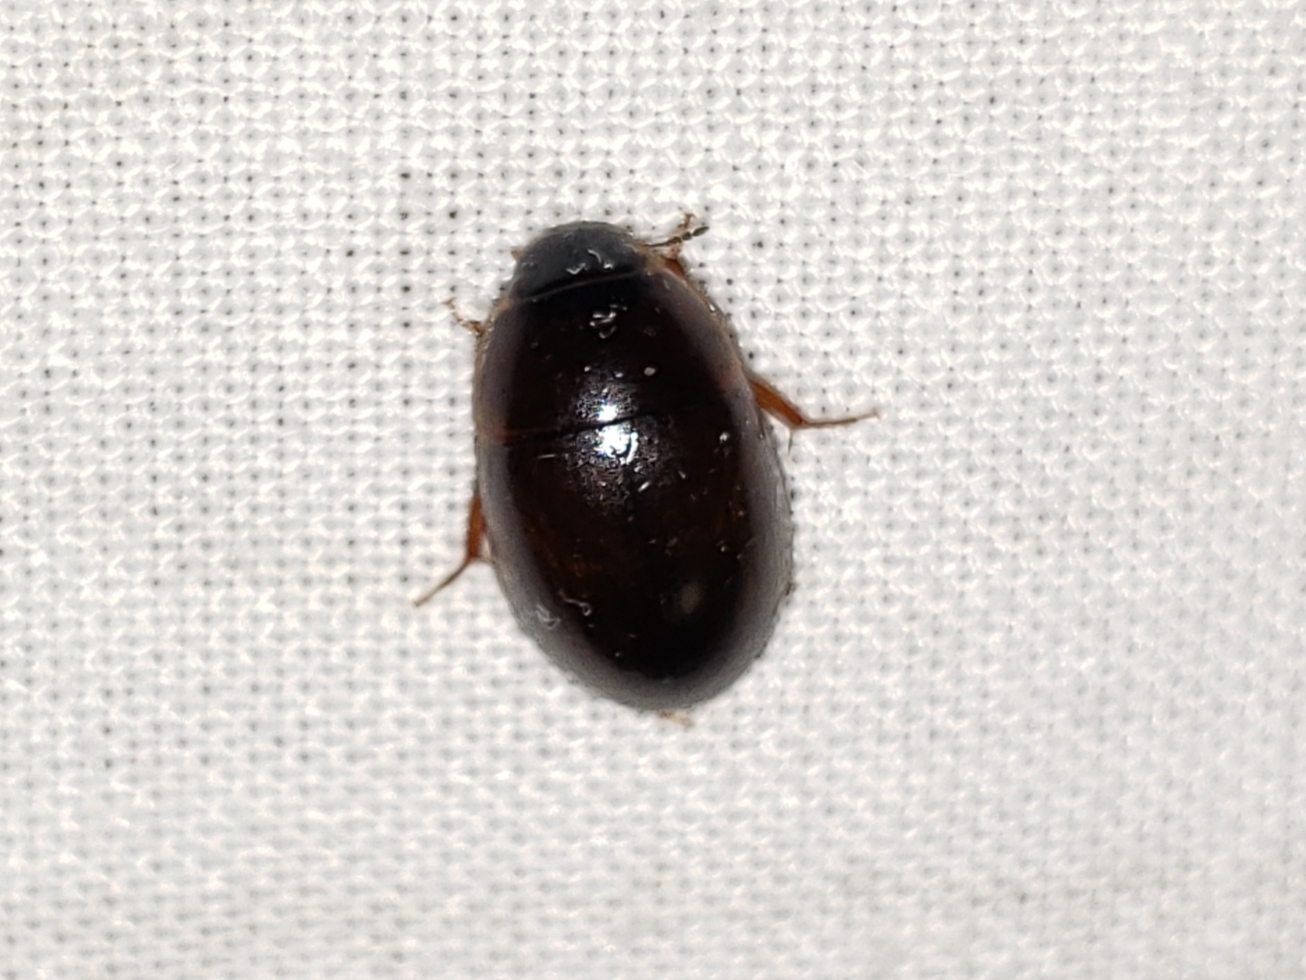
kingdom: Animalia
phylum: Arthropoda
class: Insecta
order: Coleoptera
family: Hydrophilidae
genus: Enochrus
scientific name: Enochrus
